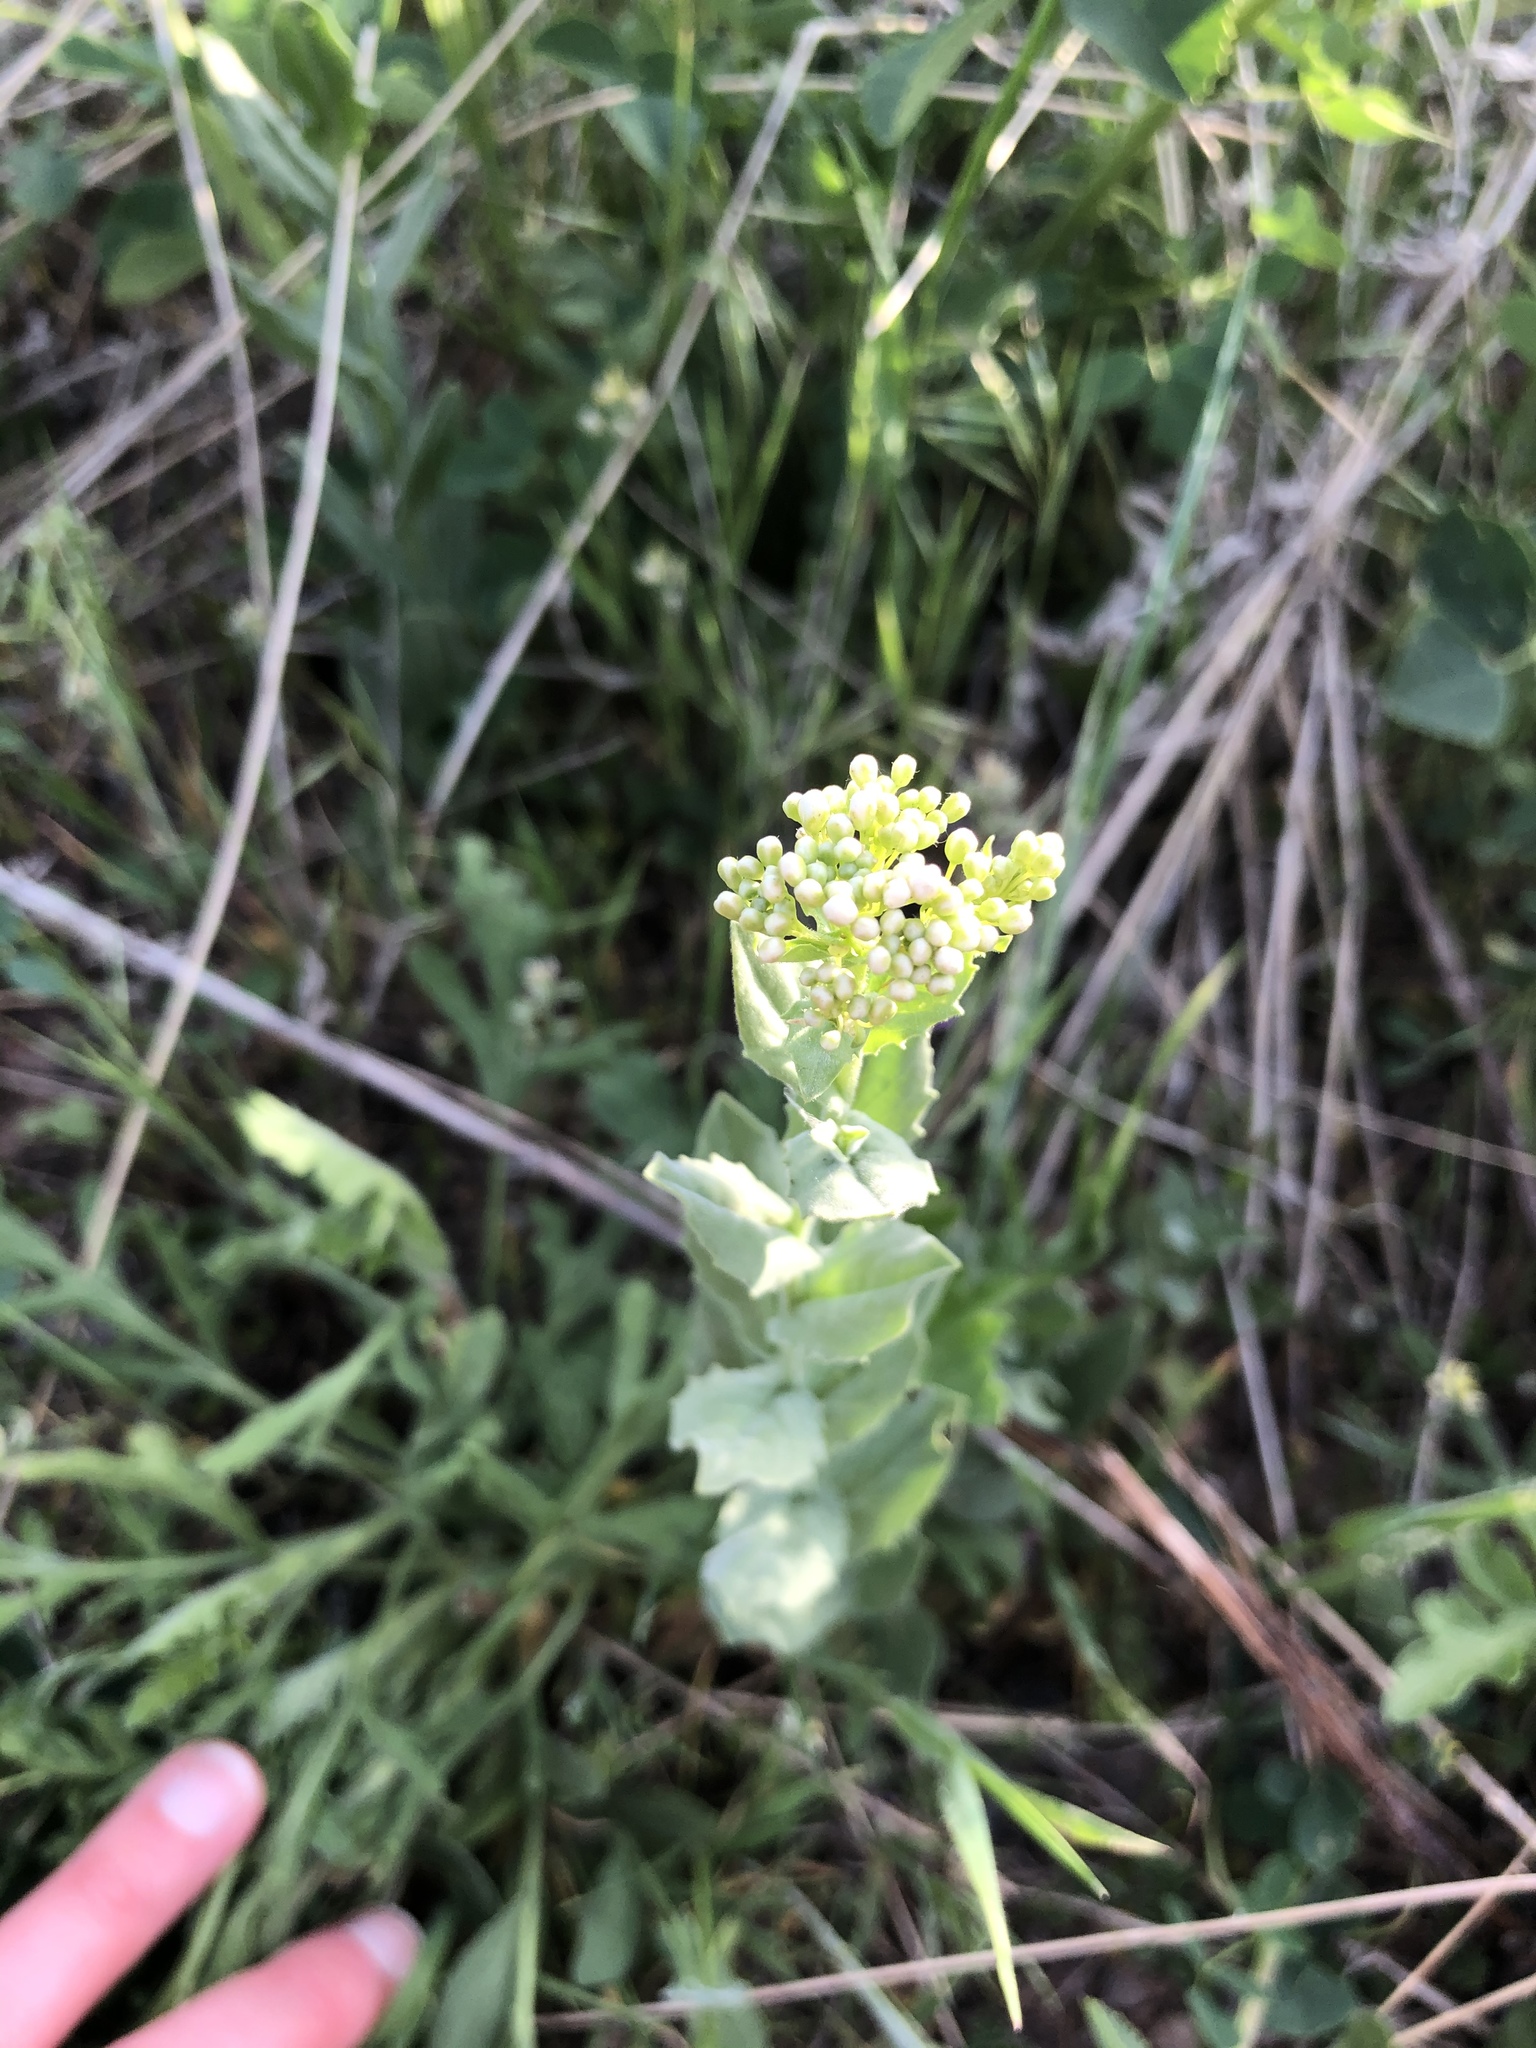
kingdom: Plantae
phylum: Tracheophyta
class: Magnoliopsida
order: Brassicales
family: Brassicaceae
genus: Lepidium
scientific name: Lepidium draba
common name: Hoary cress
